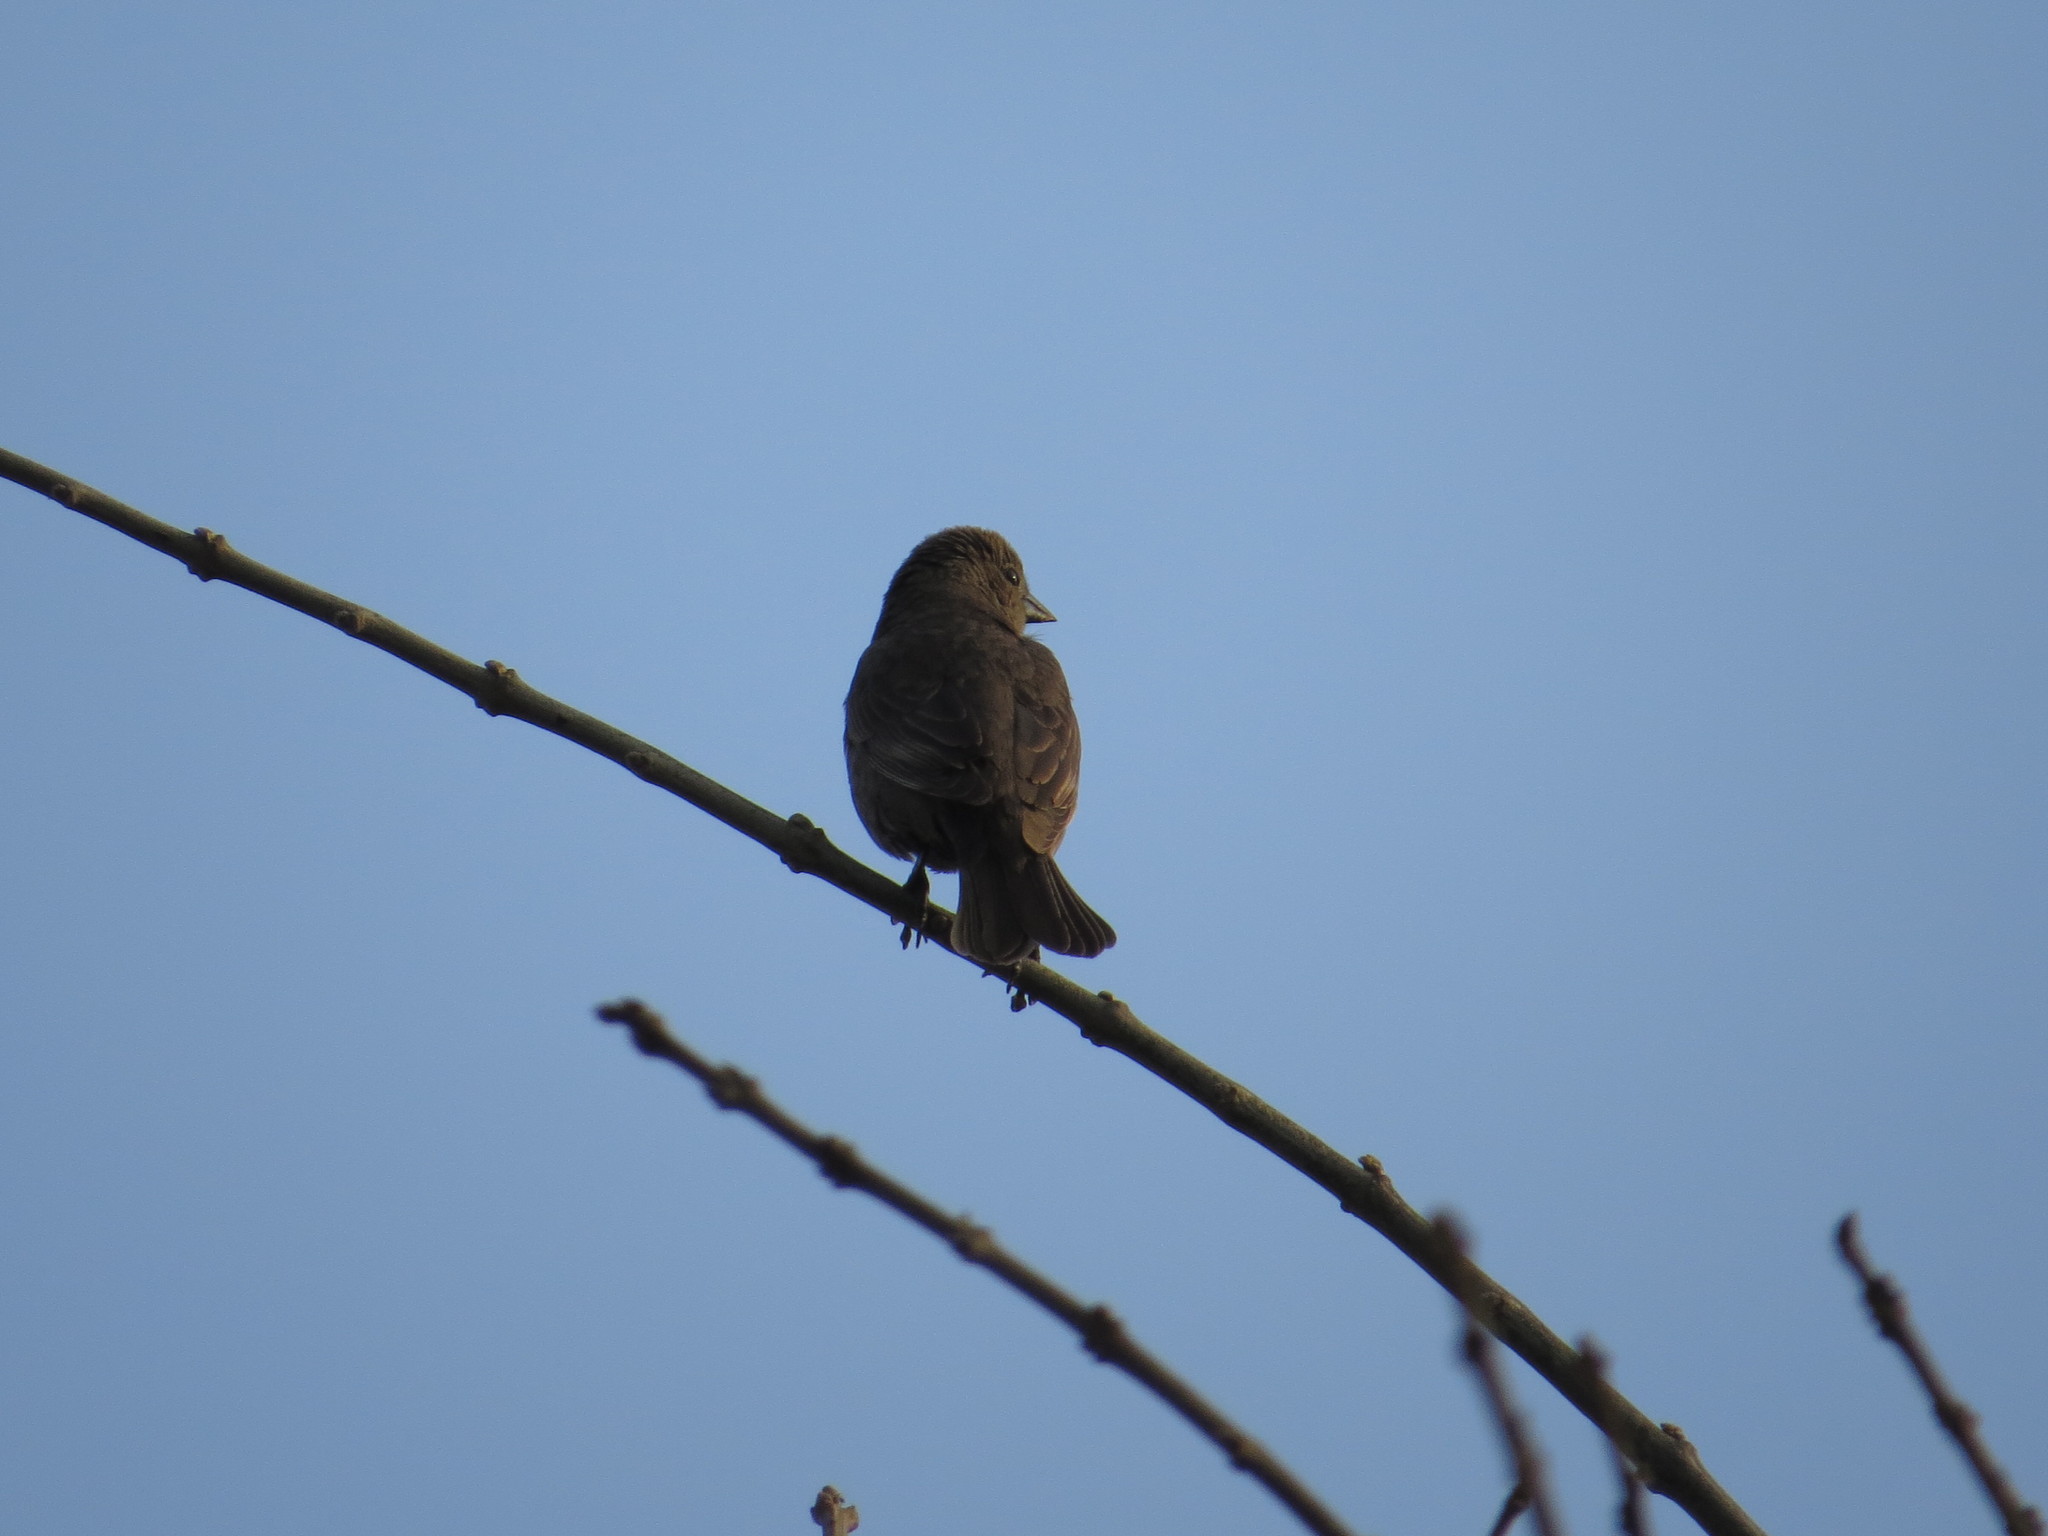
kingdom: Animalia
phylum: Chordata
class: Aves
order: Passeriformes
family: Icteridae
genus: Molothrus
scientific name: Molothrus bonariensis
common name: Shiny cowbird
